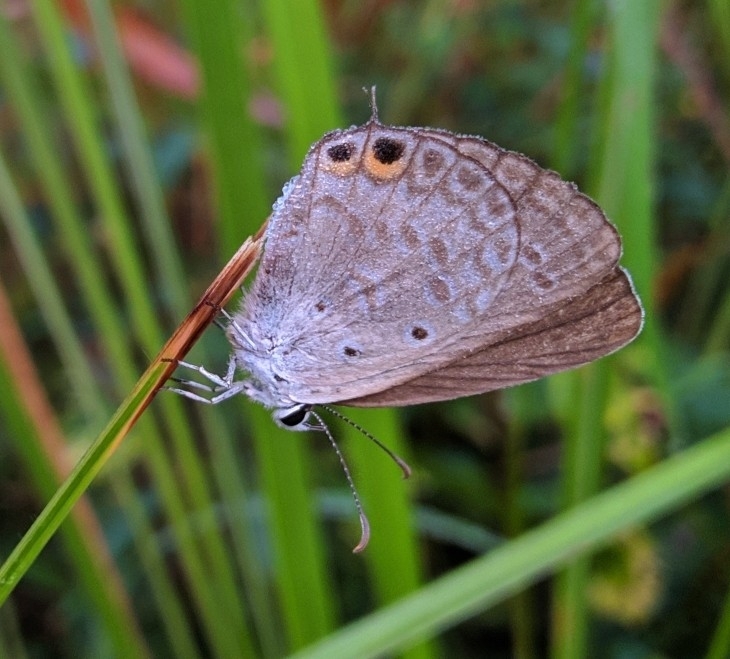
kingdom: Animalia
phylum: Arthropoda
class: Insecta
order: Lepidoptera
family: Lycaenidae
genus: Euchrysops
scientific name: Euchrysops cnejus
